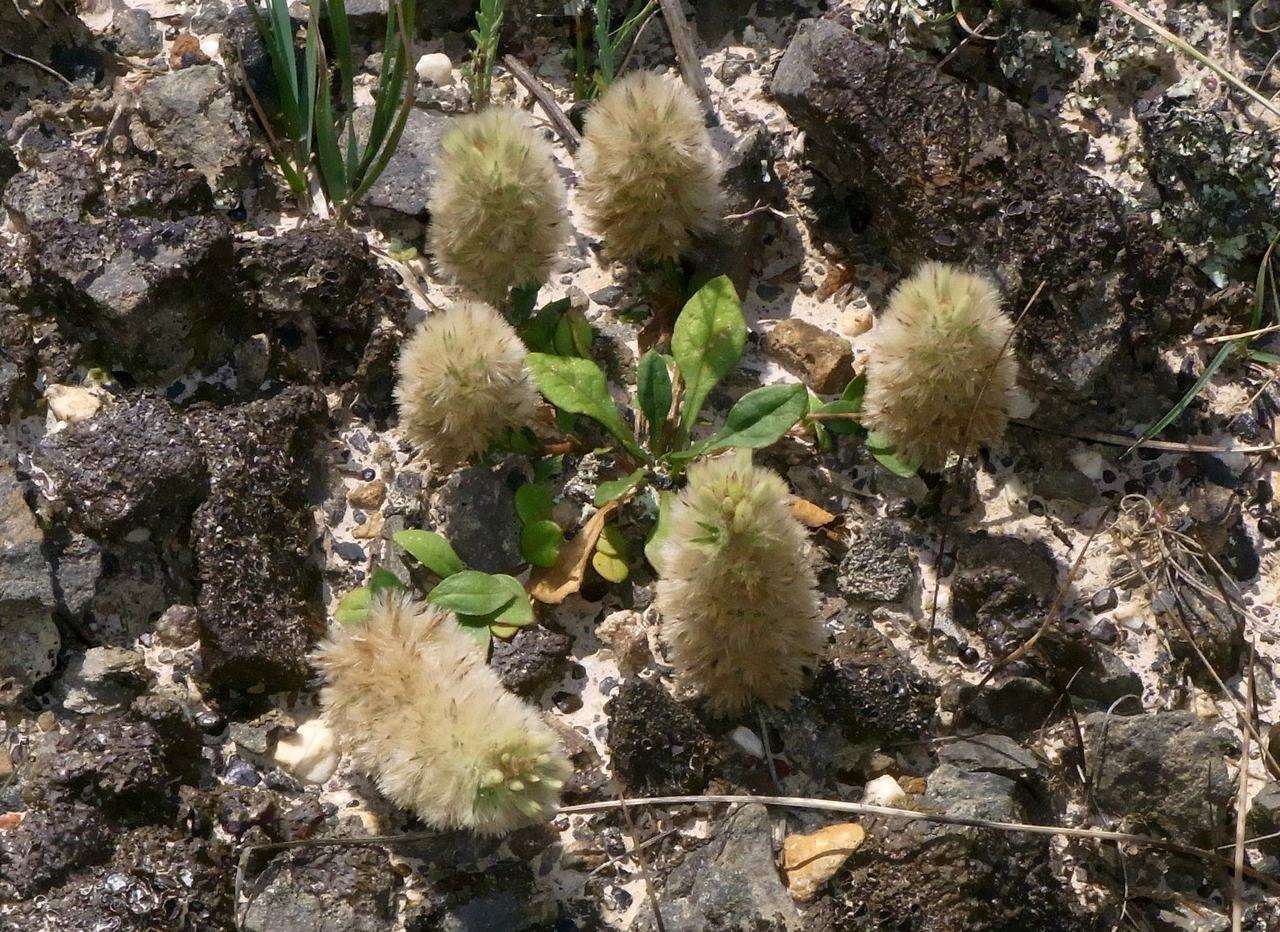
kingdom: Plantae
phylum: Tracheophyta
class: Magnoliopsida
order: Caryophyllales
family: Amaranthaceae
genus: Ptilotus
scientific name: Ptilotus spathulatus
